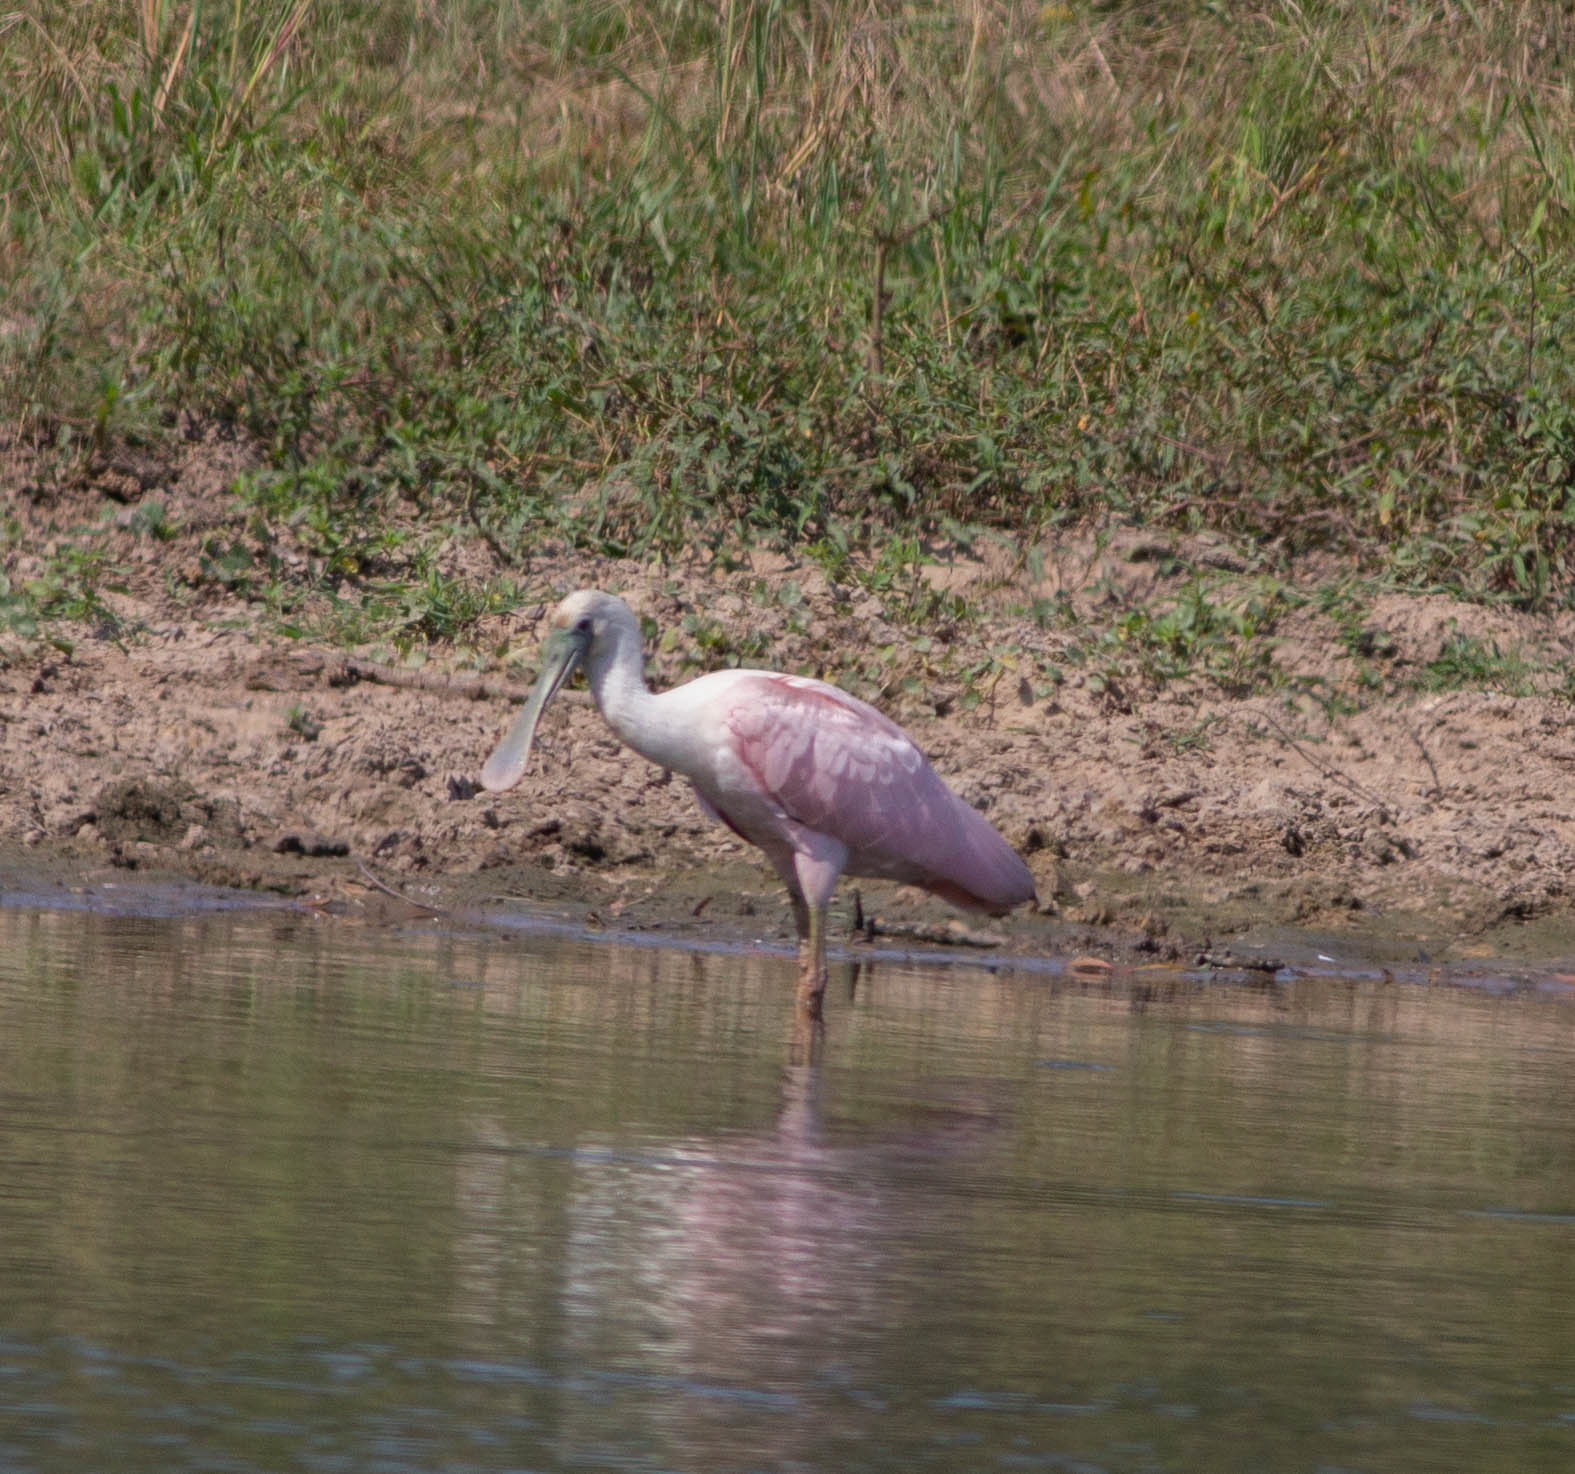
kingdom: Animalia
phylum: Chordata
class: Aves
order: Pelecaniformes
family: Threskiornithidae
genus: Platalea
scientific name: Platalea ajaja
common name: Roseate spoonbill
